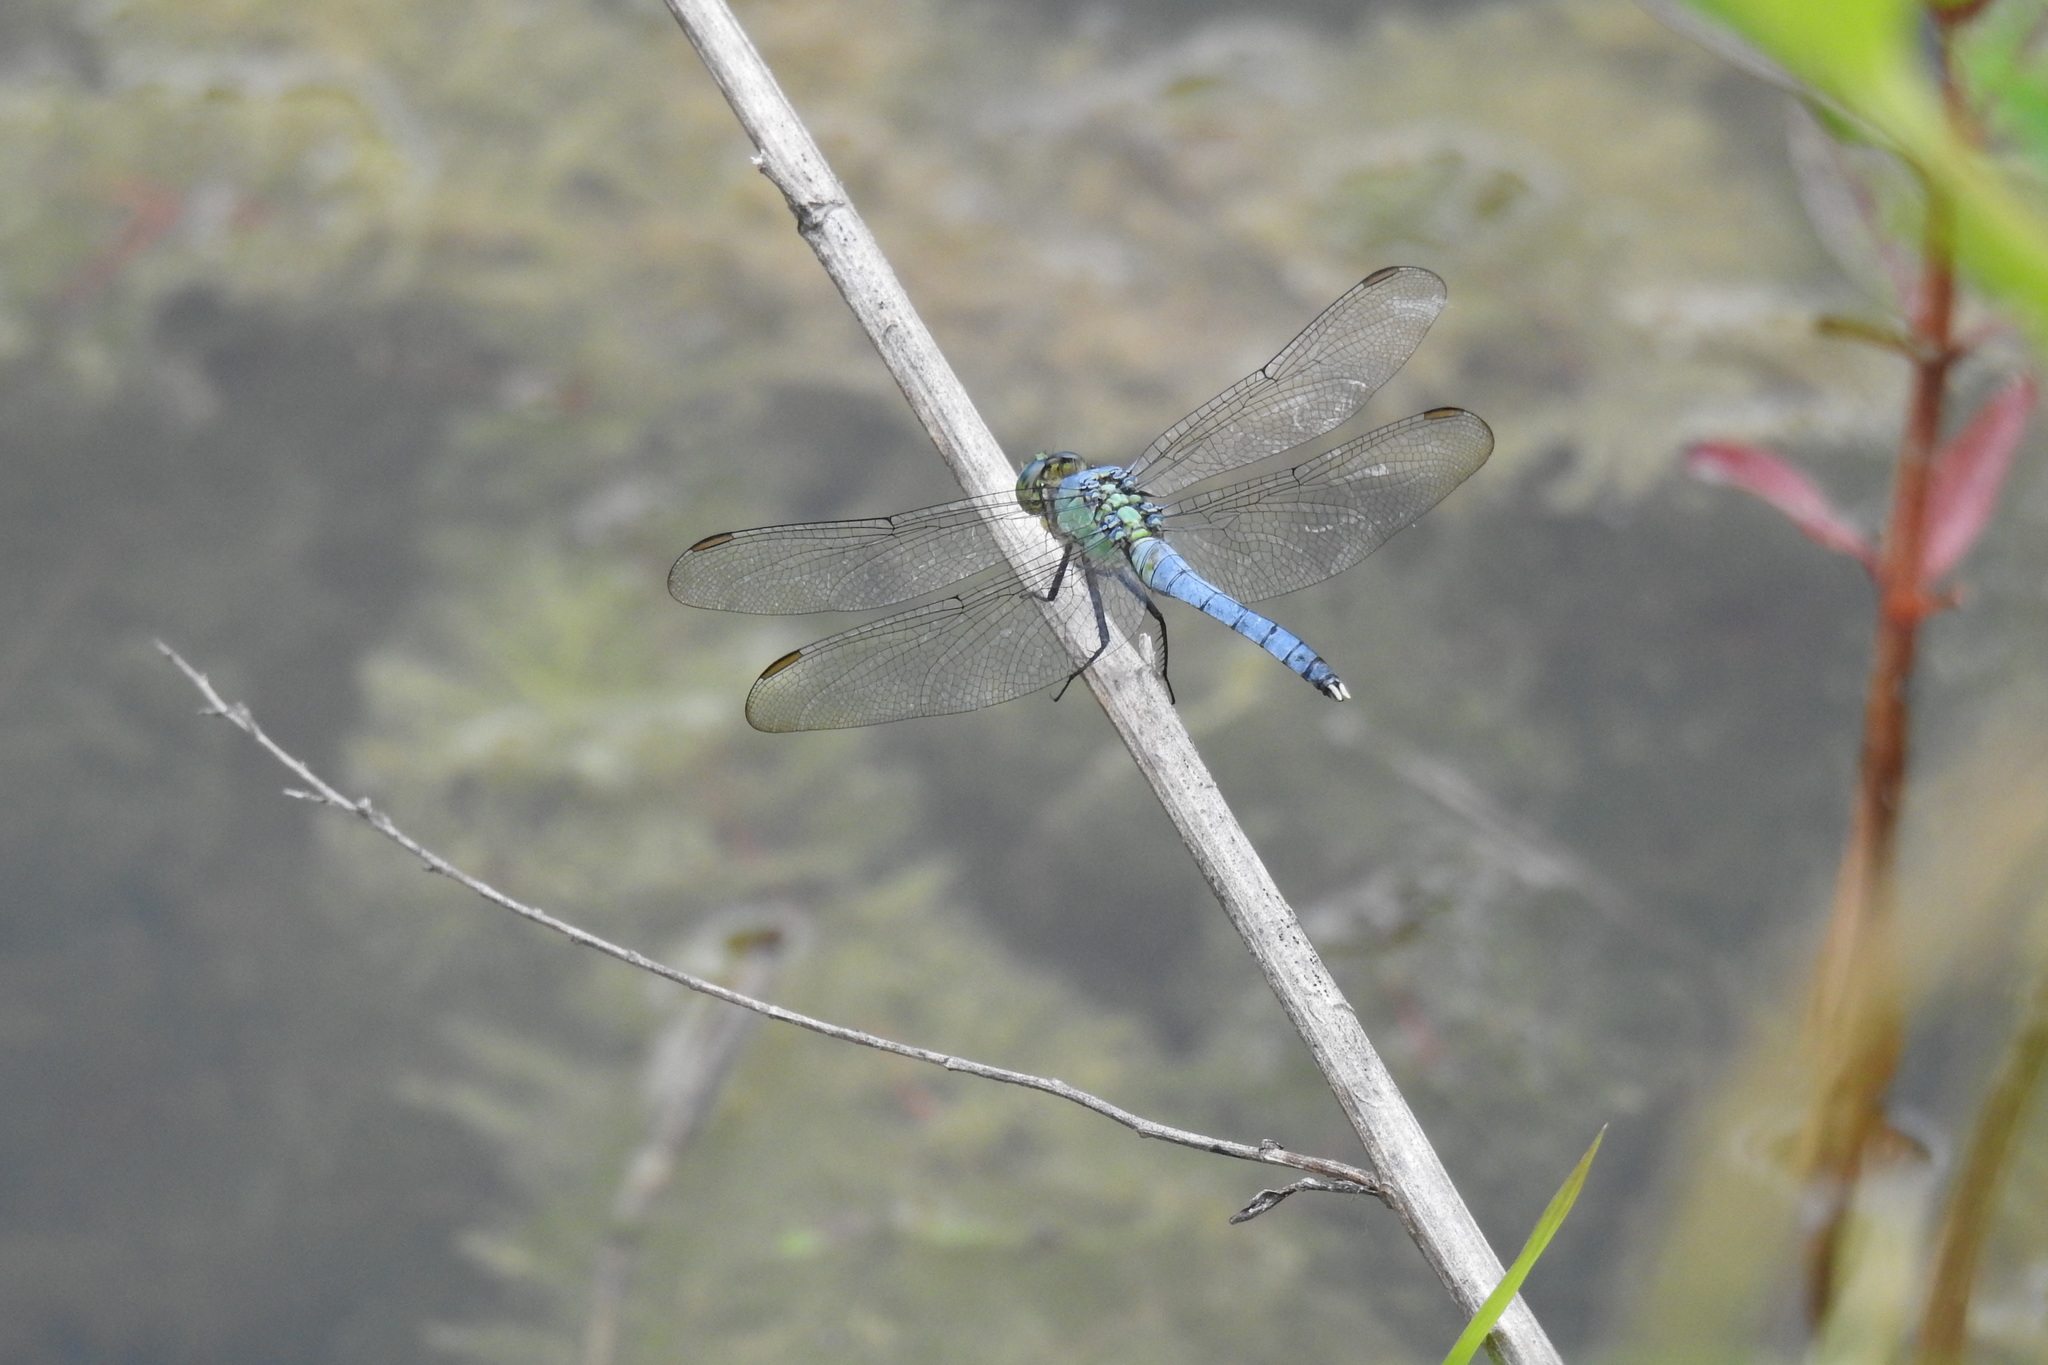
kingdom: Animalia
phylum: Arthropoda
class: Insecta
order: Odonata
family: Libellulidae
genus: Erythemis
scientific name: Erythemis simplicicollis
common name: Eastern pondhawk
